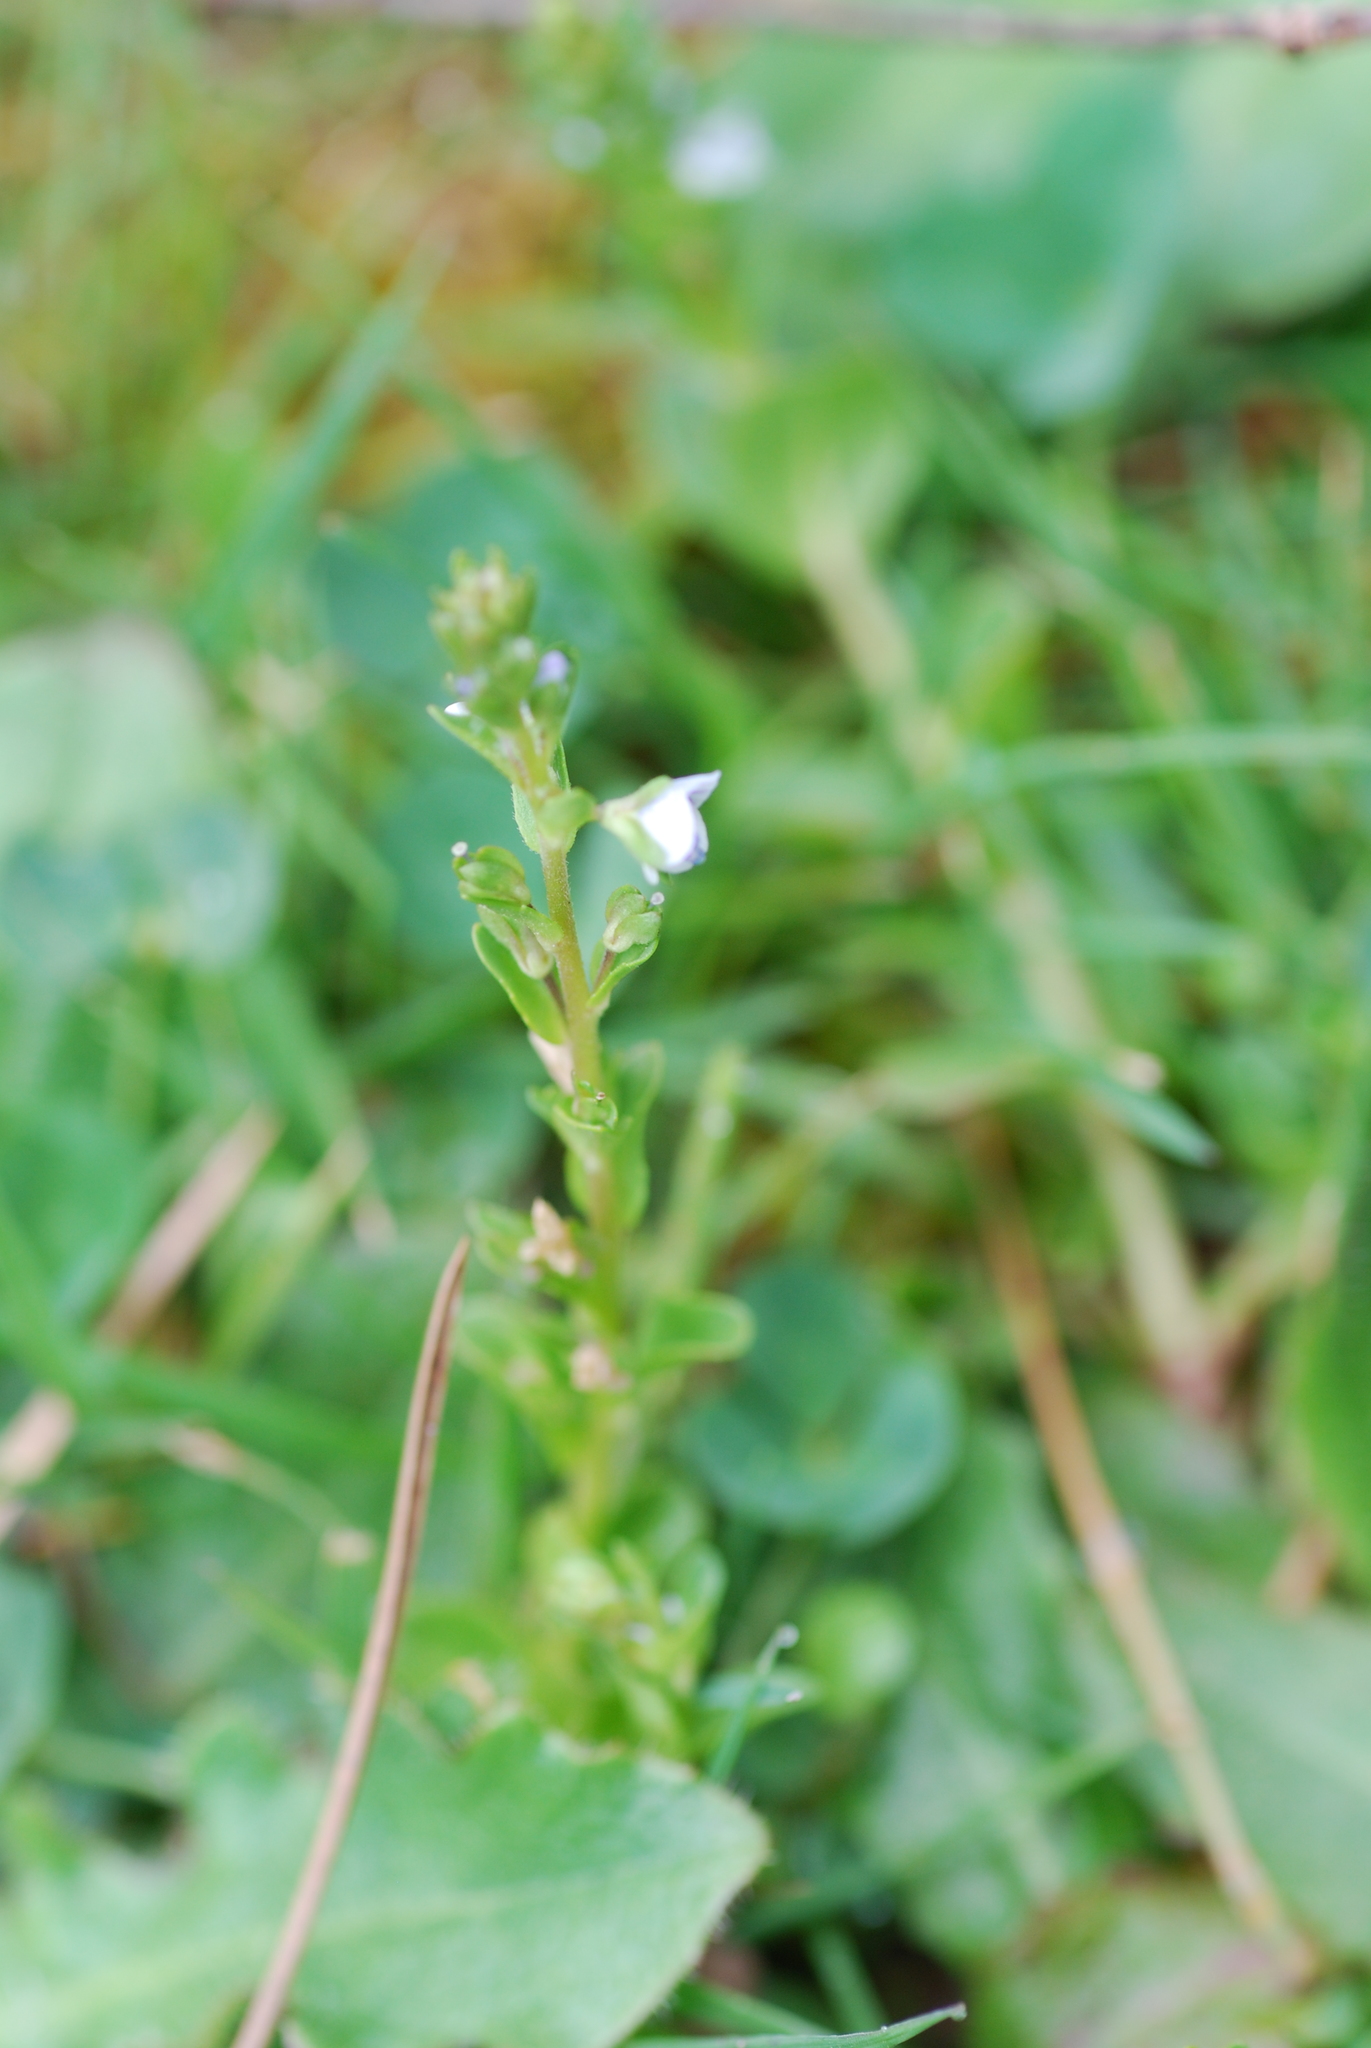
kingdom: Plantae
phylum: Tracheophyta
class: Magnoliopsida
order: Lamiales
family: Plantaginaceae
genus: Veronica
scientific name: Veronica serpyllifolia
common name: Thyme-leaved speedwell
